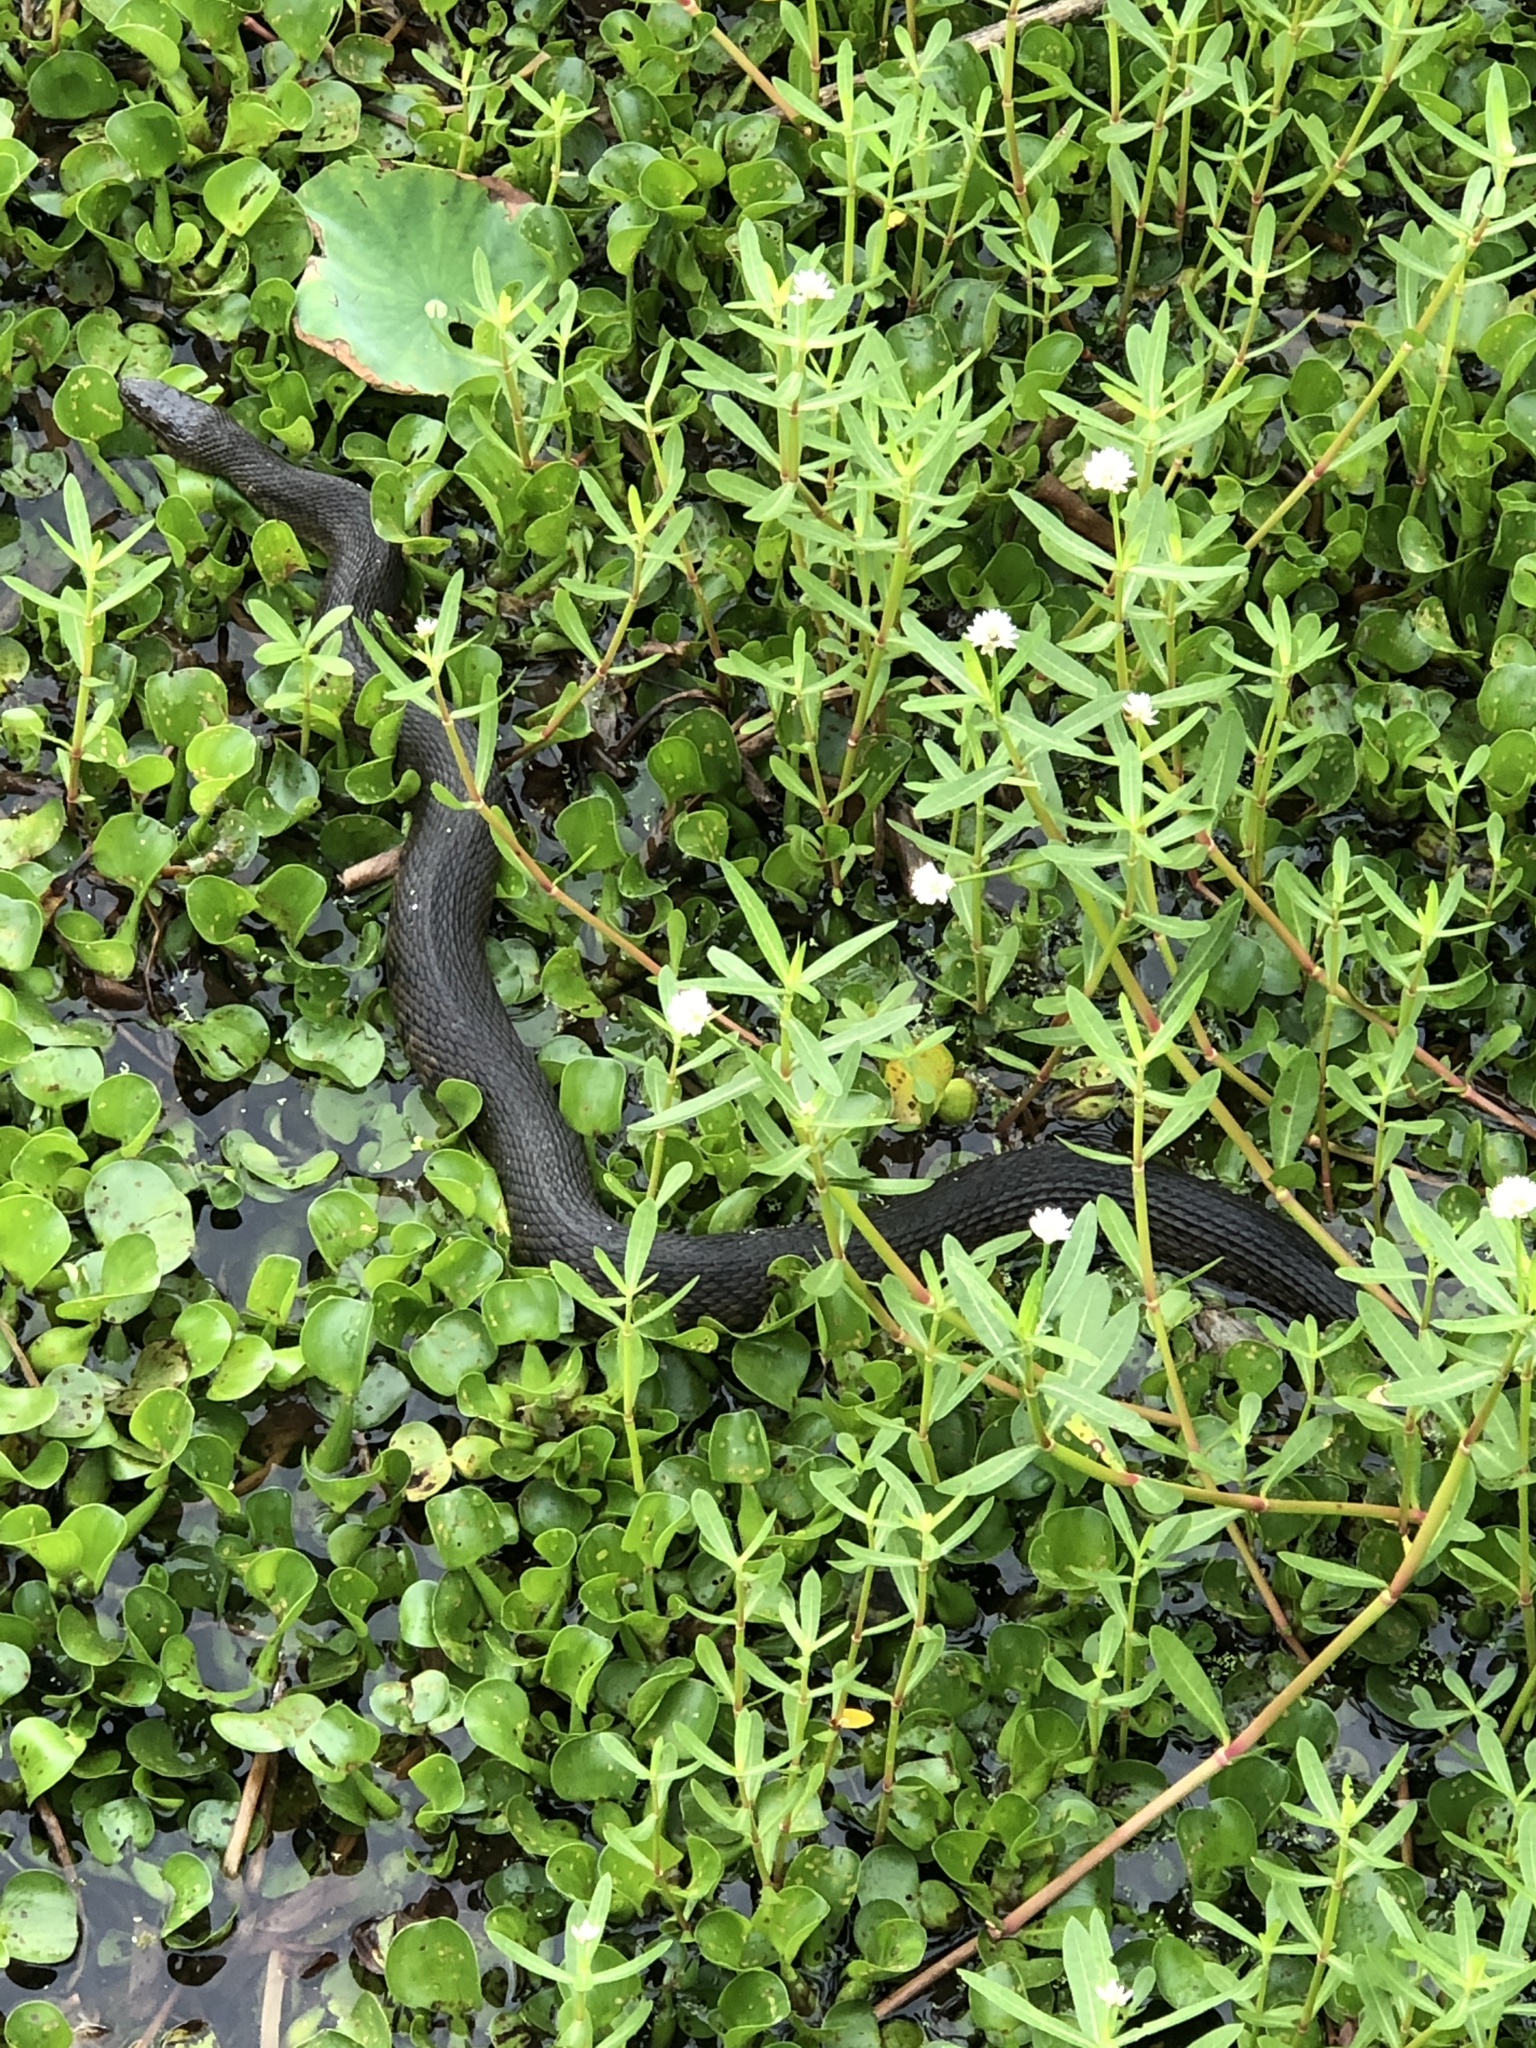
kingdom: Animalia
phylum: Chordata
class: Squamata
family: Colubridae
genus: Nerodia
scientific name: Nerodia cyclopion
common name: Mississippi green water snake
